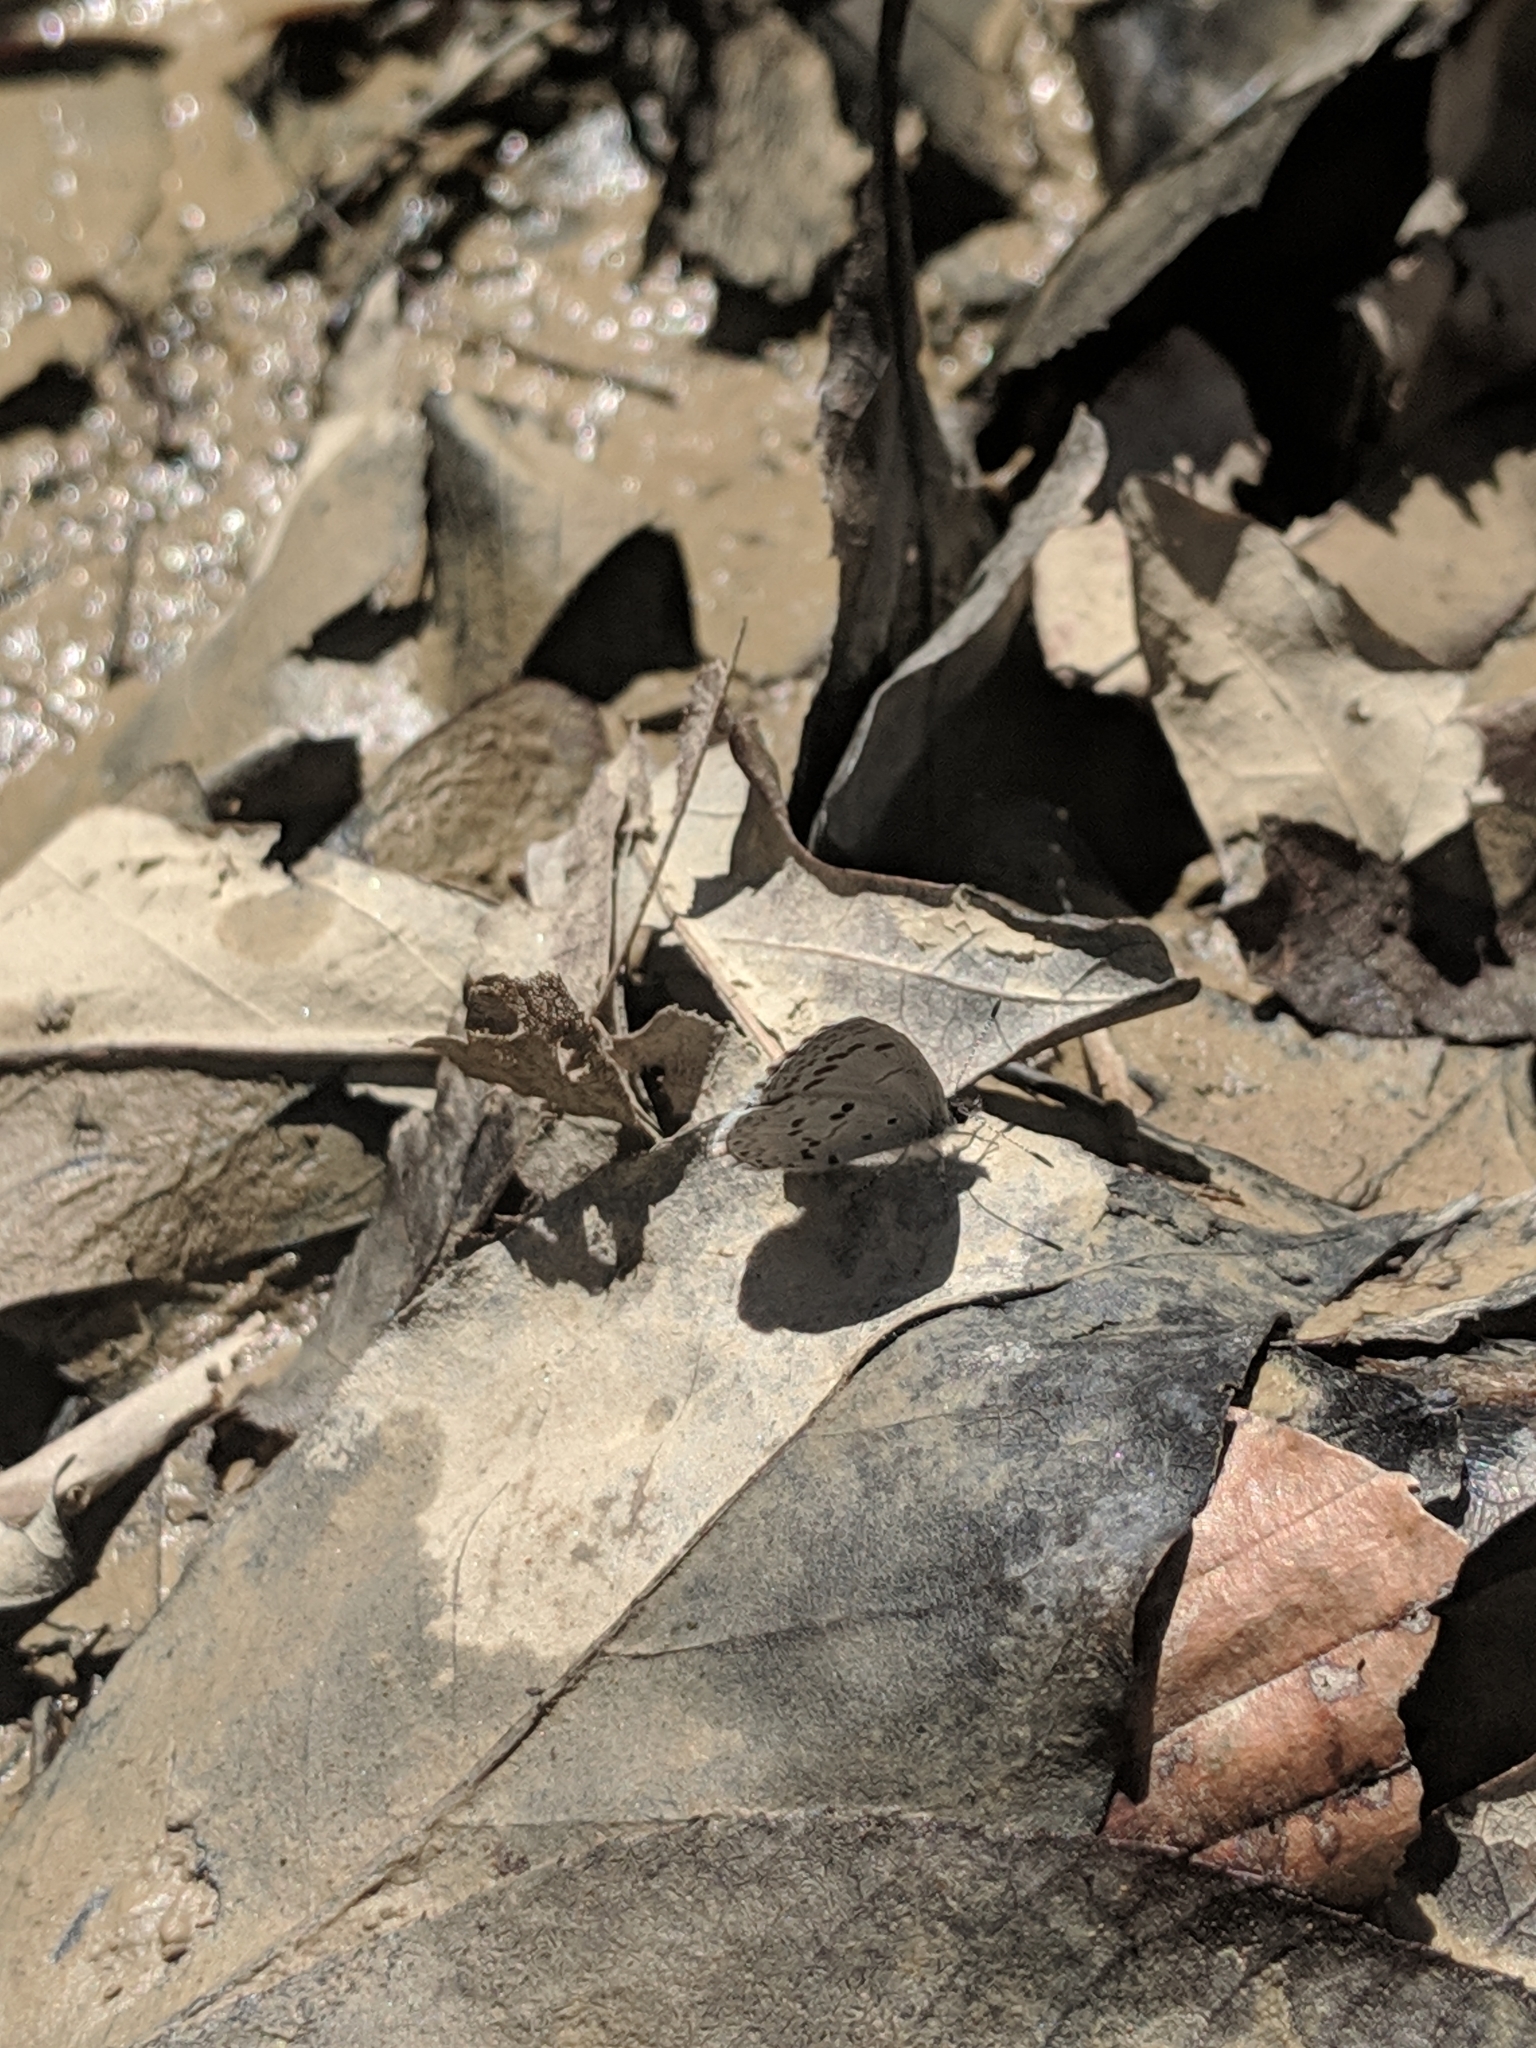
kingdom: Animalia
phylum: Arthropoda
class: Insecta
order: Lepidoptera
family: Lycaenidae
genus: Celastrina
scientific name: Celastrina ladon
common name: Spring azure
